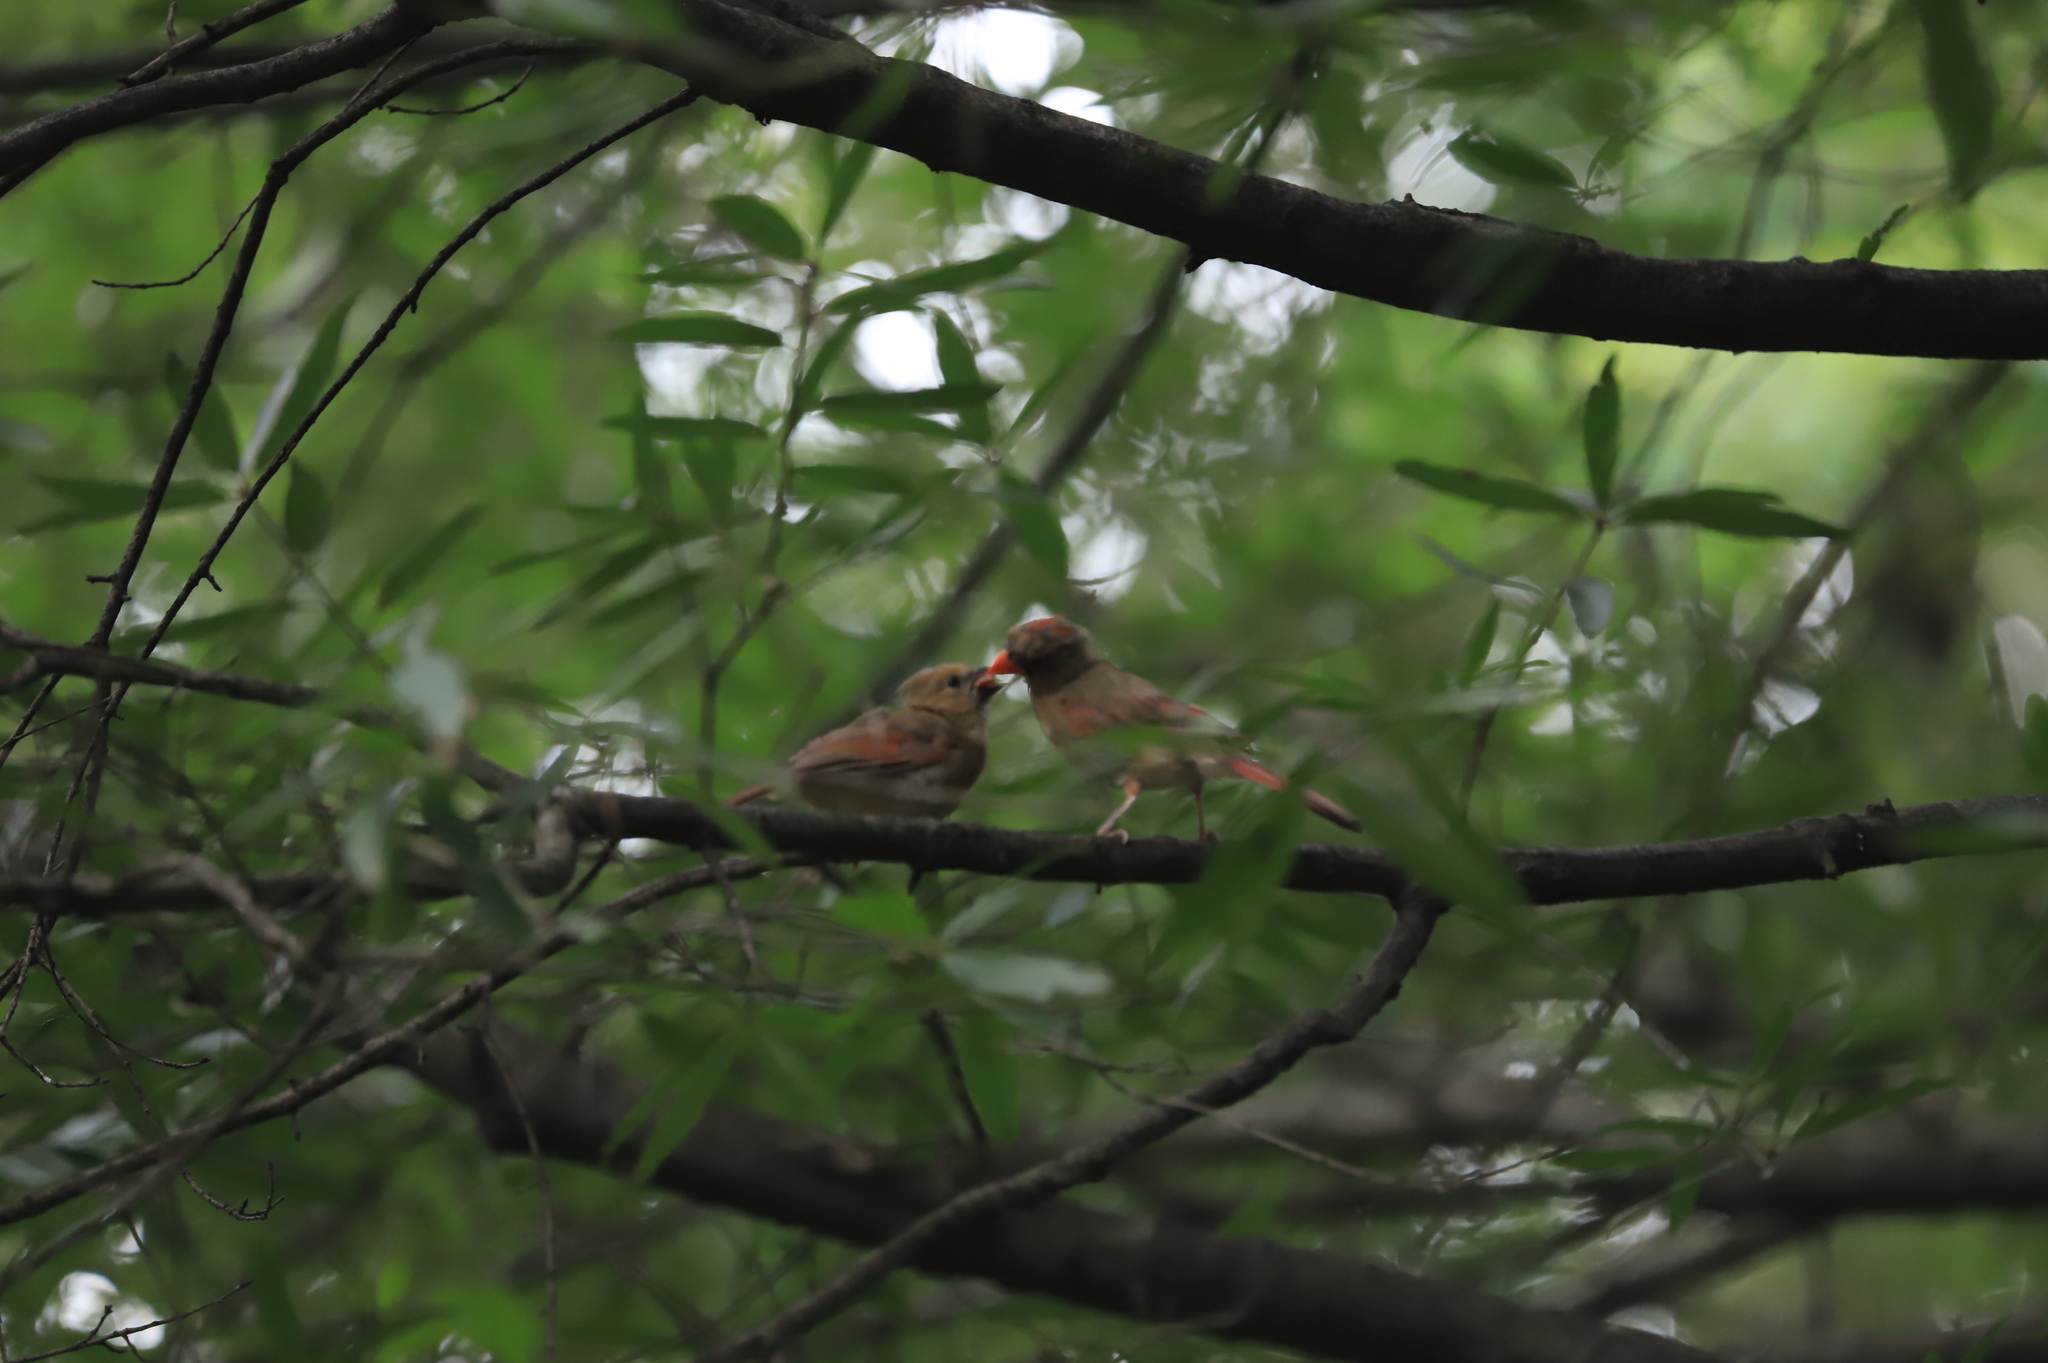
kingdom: Animalia
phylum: Chordata
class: Aves
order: Passeriformes
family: Cardinalidae
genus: Cardinalis
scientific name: Cardinalis cardinalis
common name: Northern cardinal
